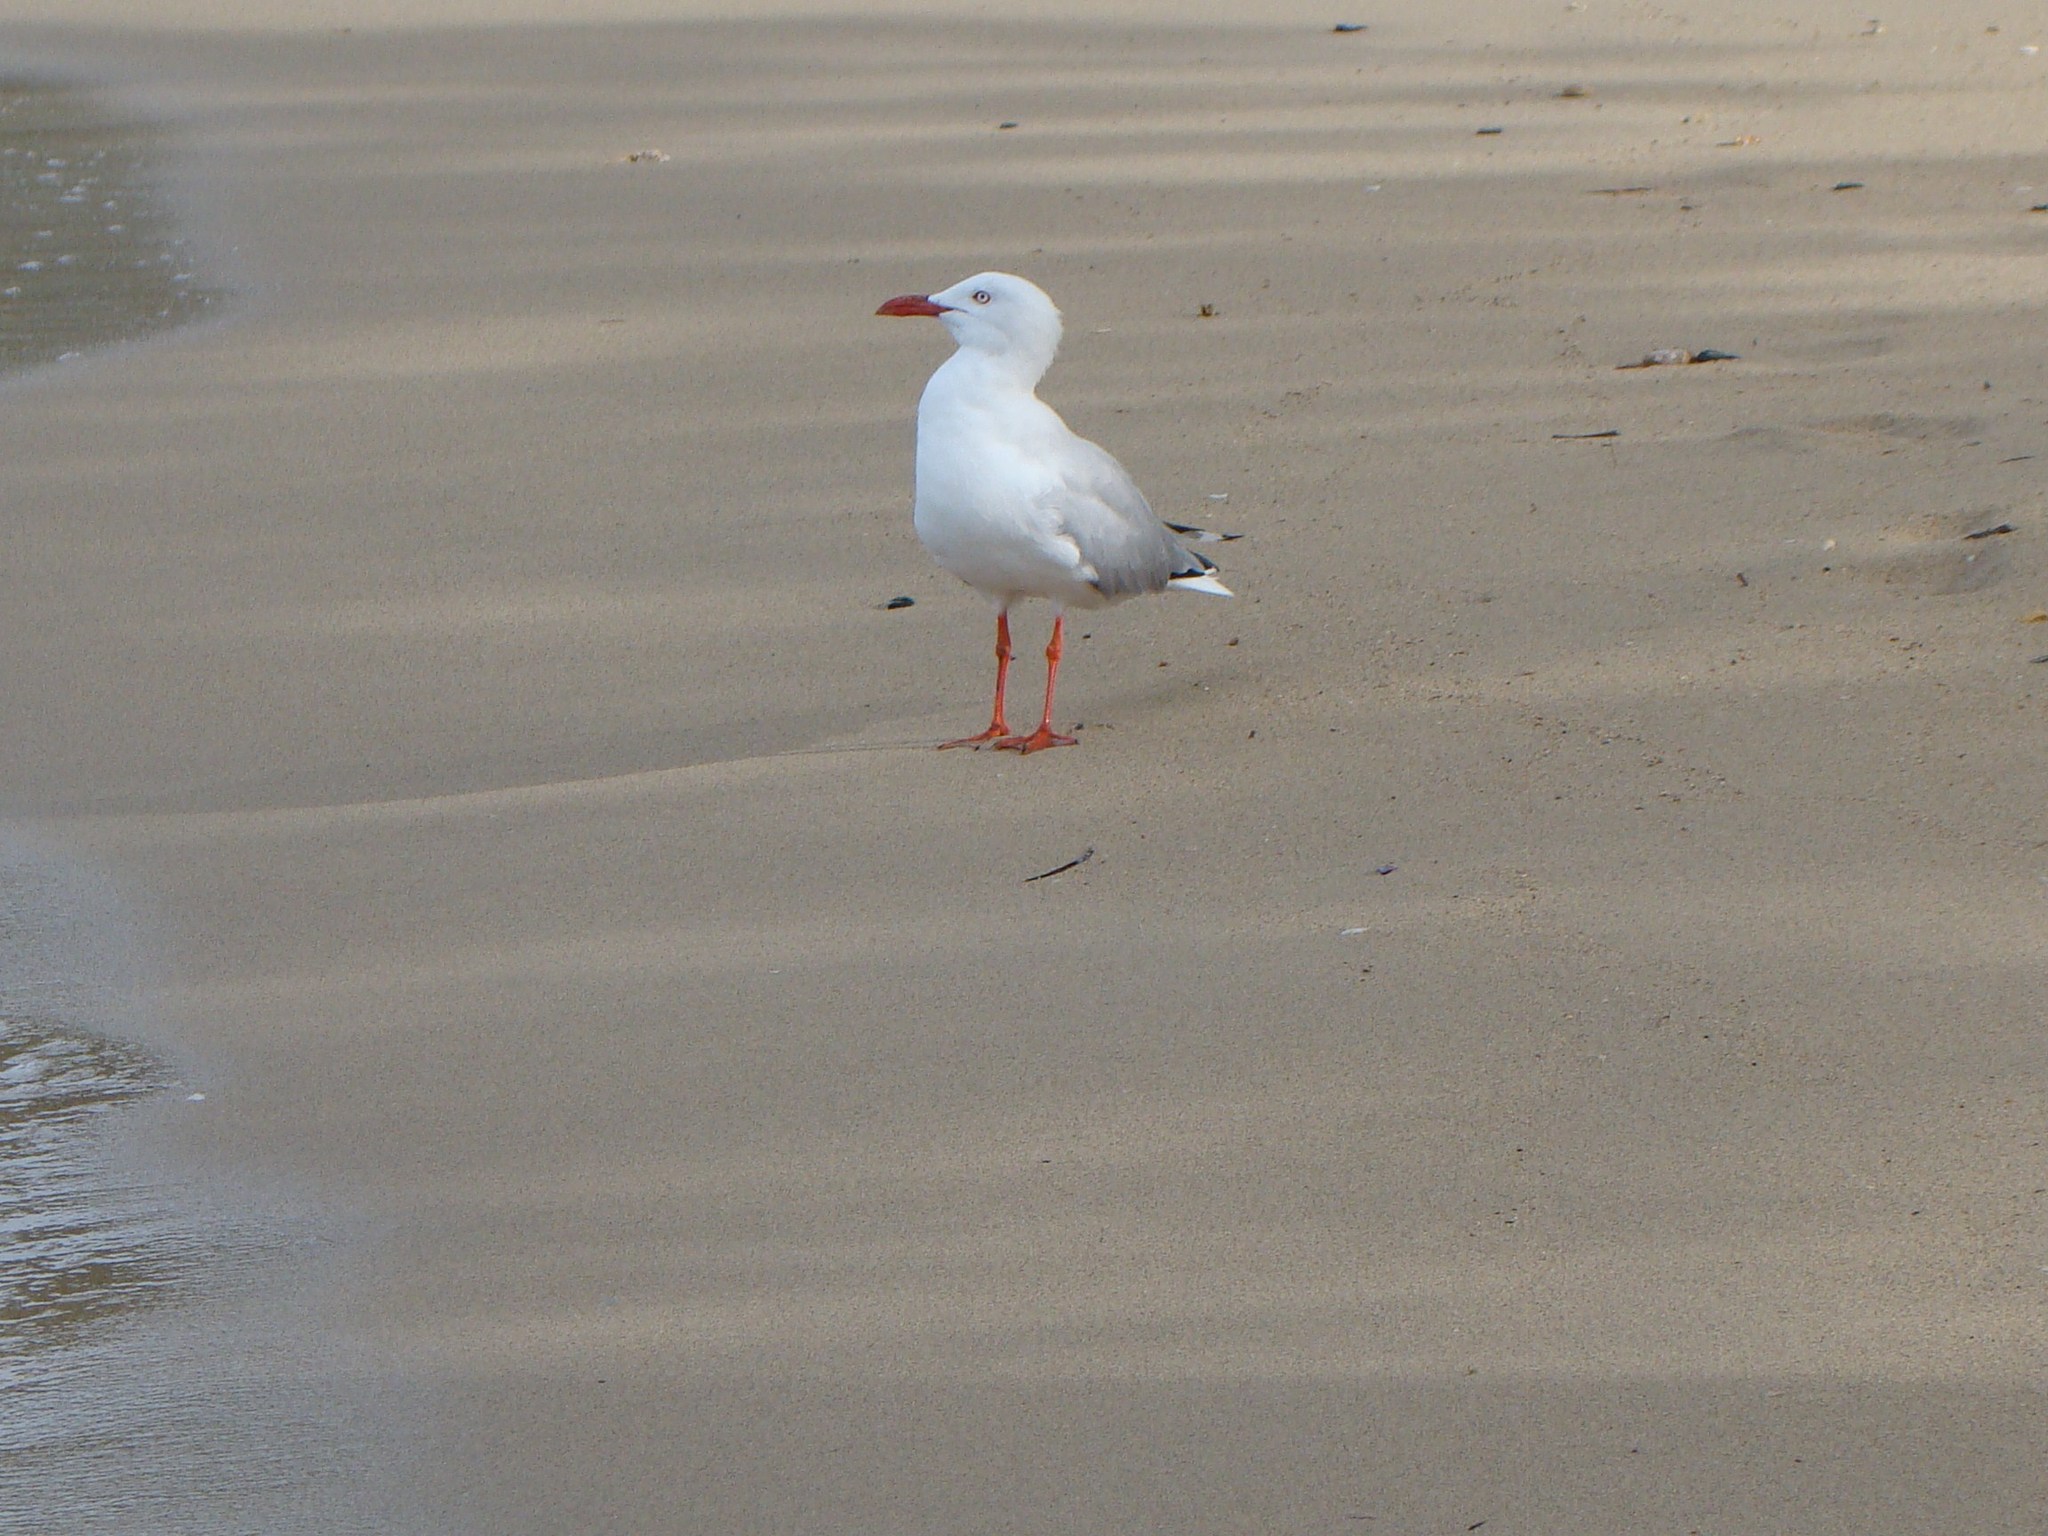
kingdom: Animalia
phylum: Chordata
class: Aves
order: Charadriiformes
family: Laridae
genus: Chroicocephalus
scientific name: Chroicocephalus novaehollandiae
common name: Silver gull
